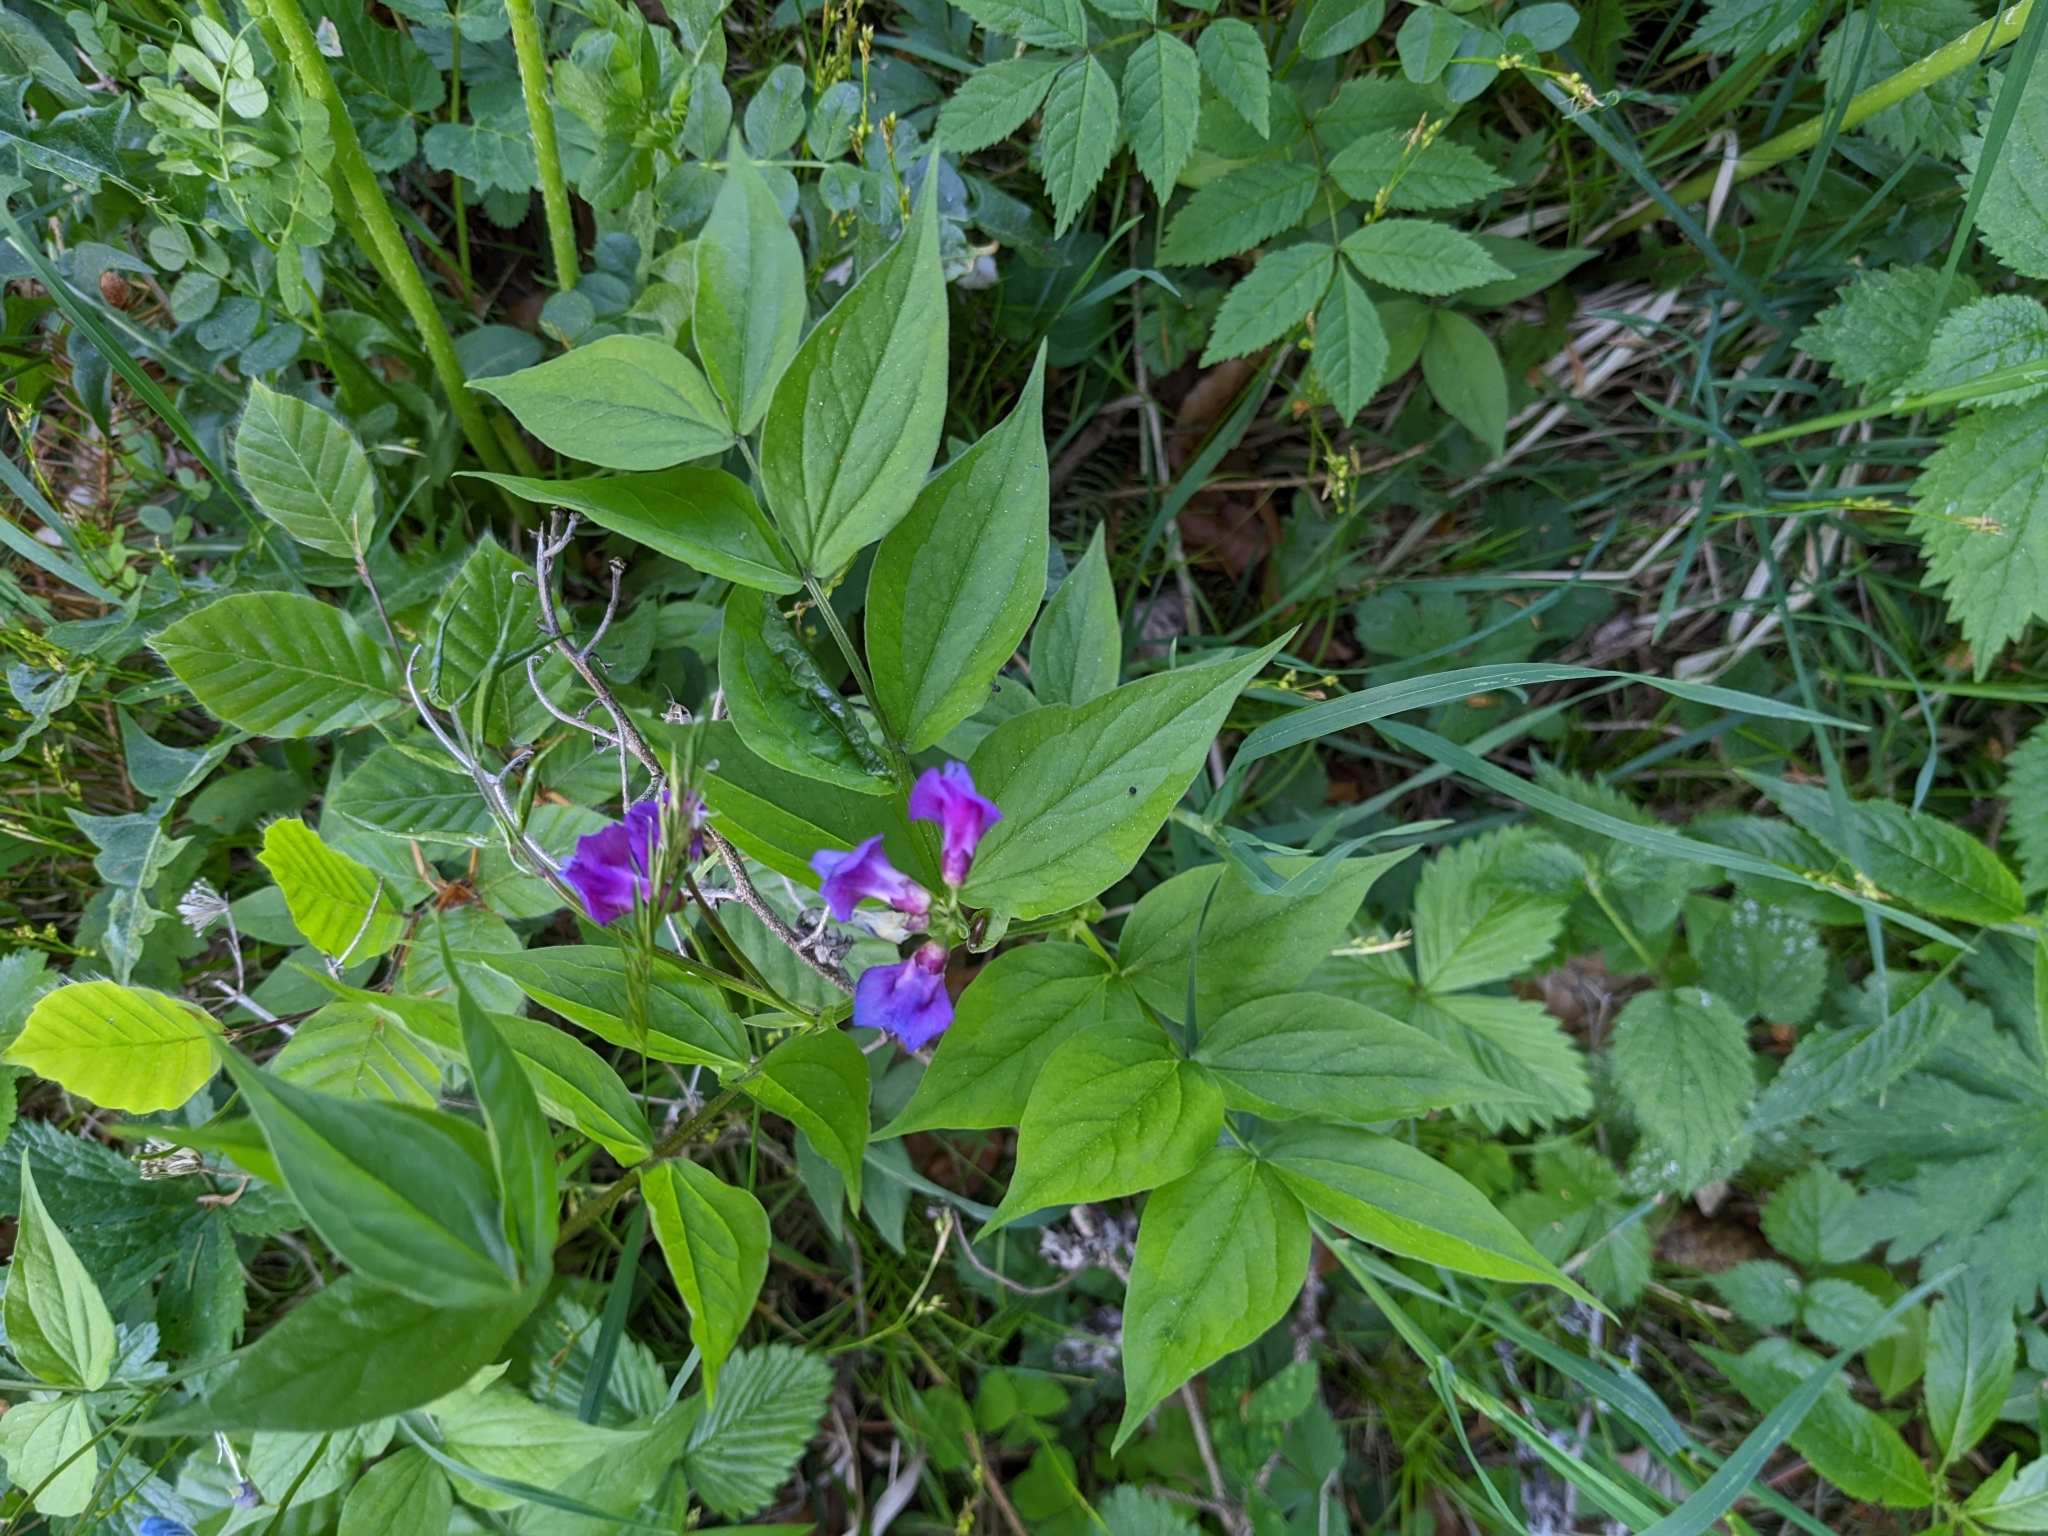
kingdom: Plantae
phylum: Tracheophyta
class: Magnoliopsida
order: Fabales
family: Fabaceae
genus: Lathyrus
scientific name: Lathyrus vernus
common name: Spring pea
